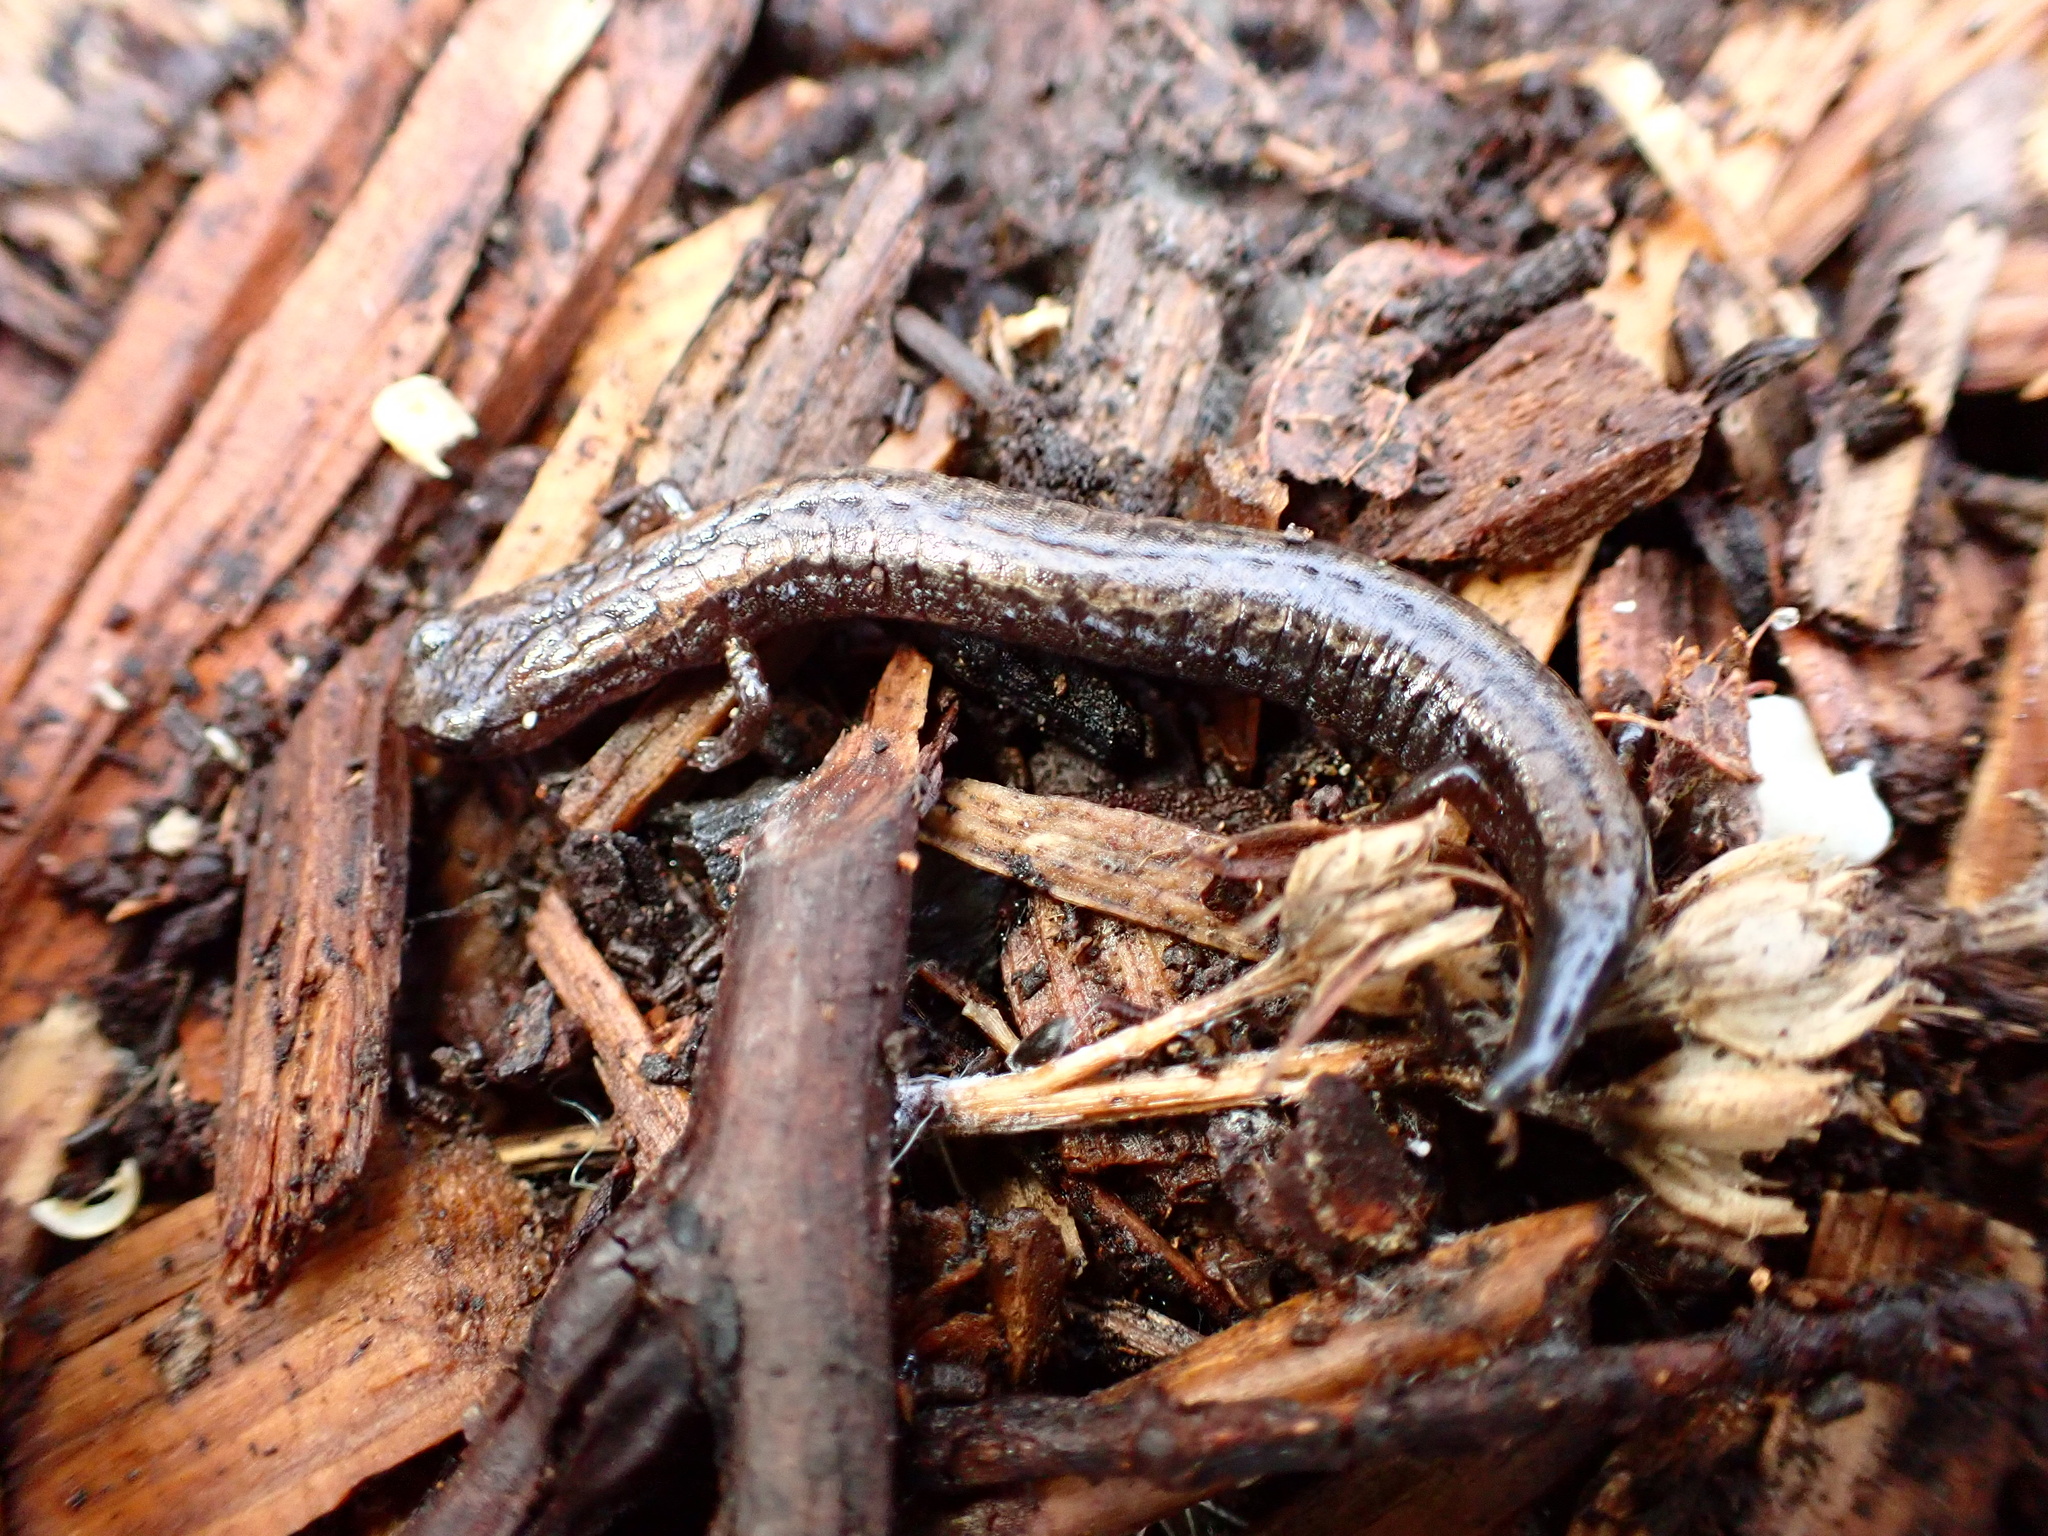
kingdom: Animalia
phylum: Chordata
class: Amphibia
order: Caudata
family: Plethodontidae
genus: Batrachoseps
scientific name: Batrachoseps attenuatus
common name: California slender salamander
